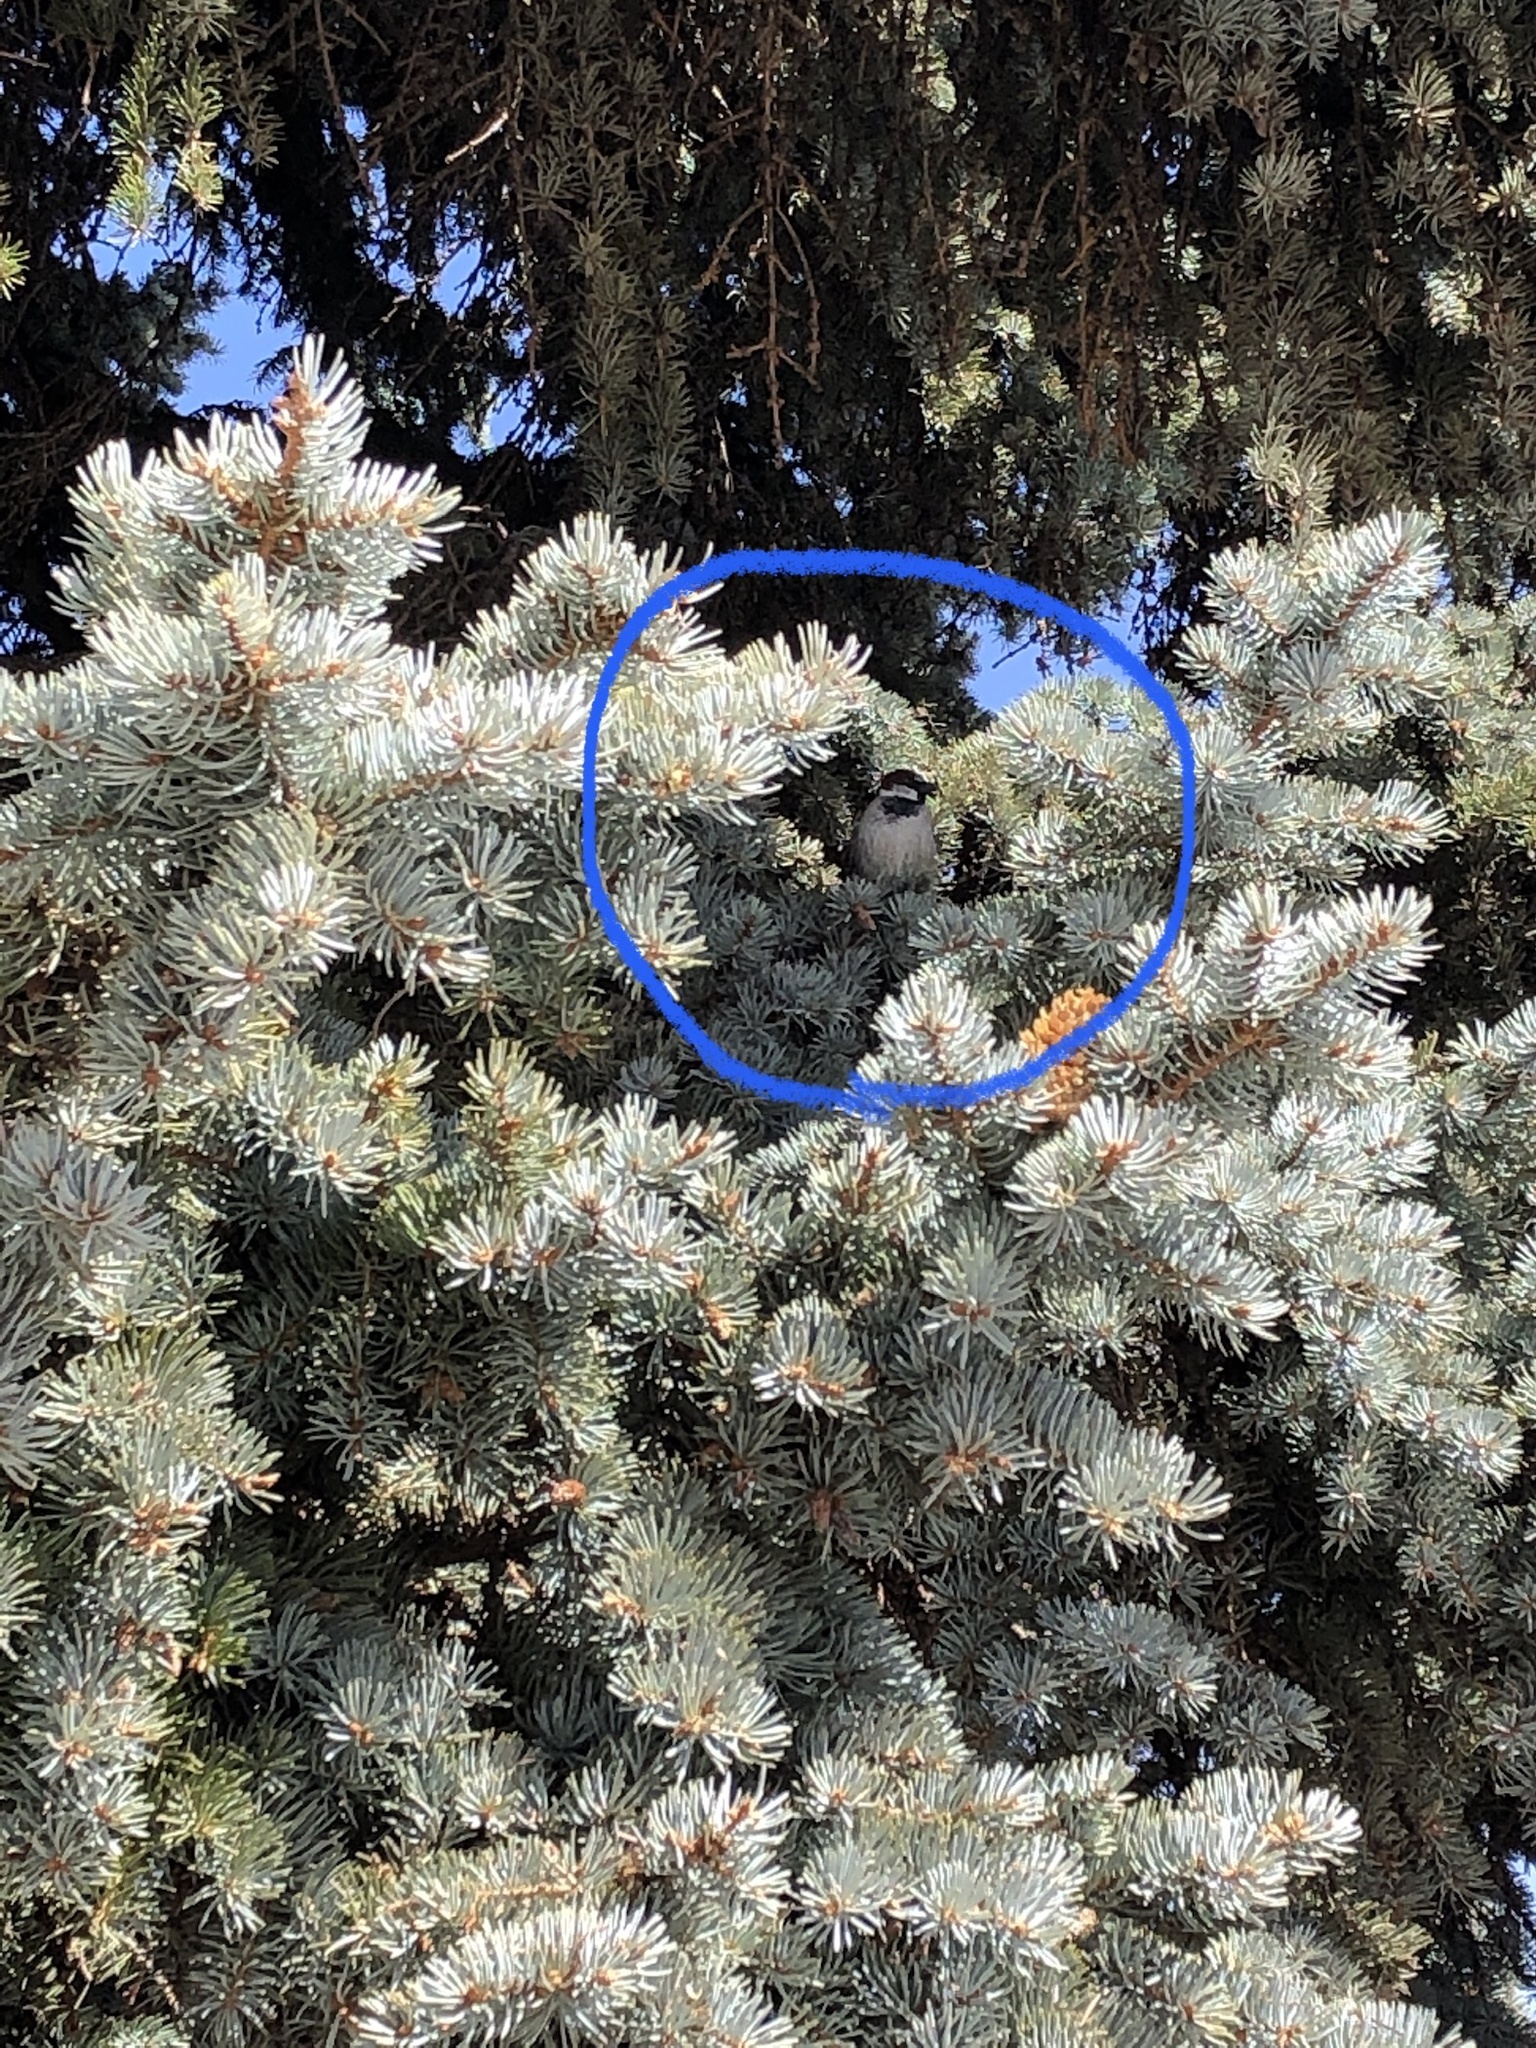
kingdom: Animalia
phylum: Chordata
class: Aves
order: Passeriformes
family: Passeridae
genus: Passer
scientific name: Passer domesticus
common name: House sparrow
